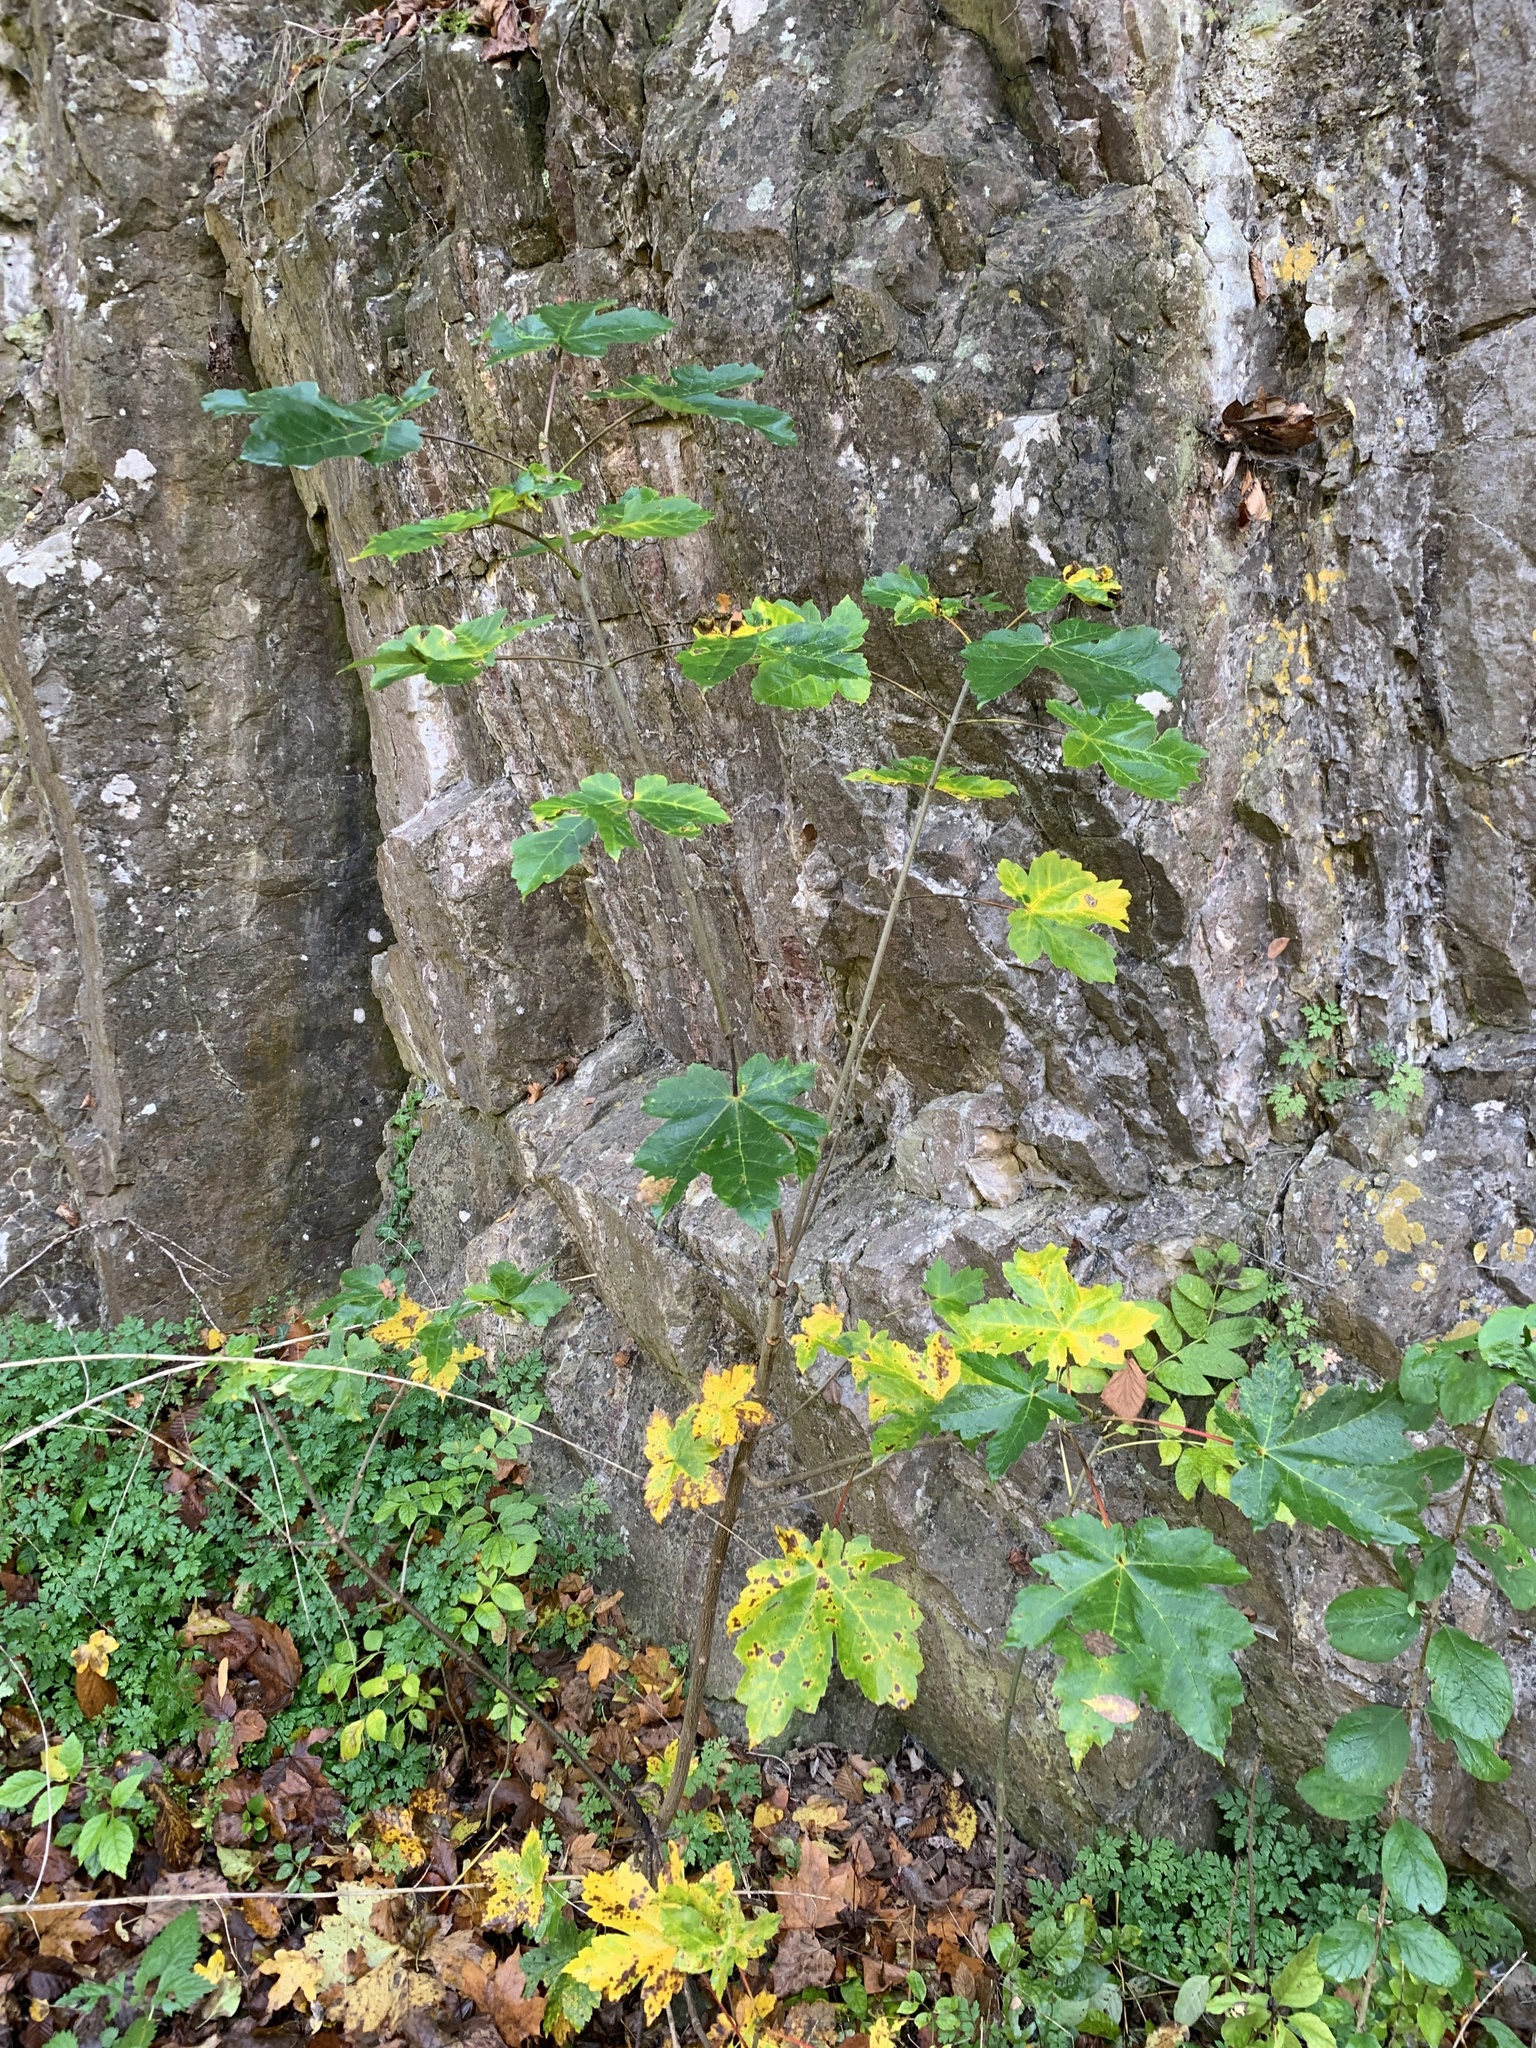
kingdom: Plantae
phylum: Tracheophyta
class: Magnoliopsida
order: Sapindales
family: Sapindaceae
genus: Acer
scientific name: Acer pseudoplatanus
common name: Sycamore
